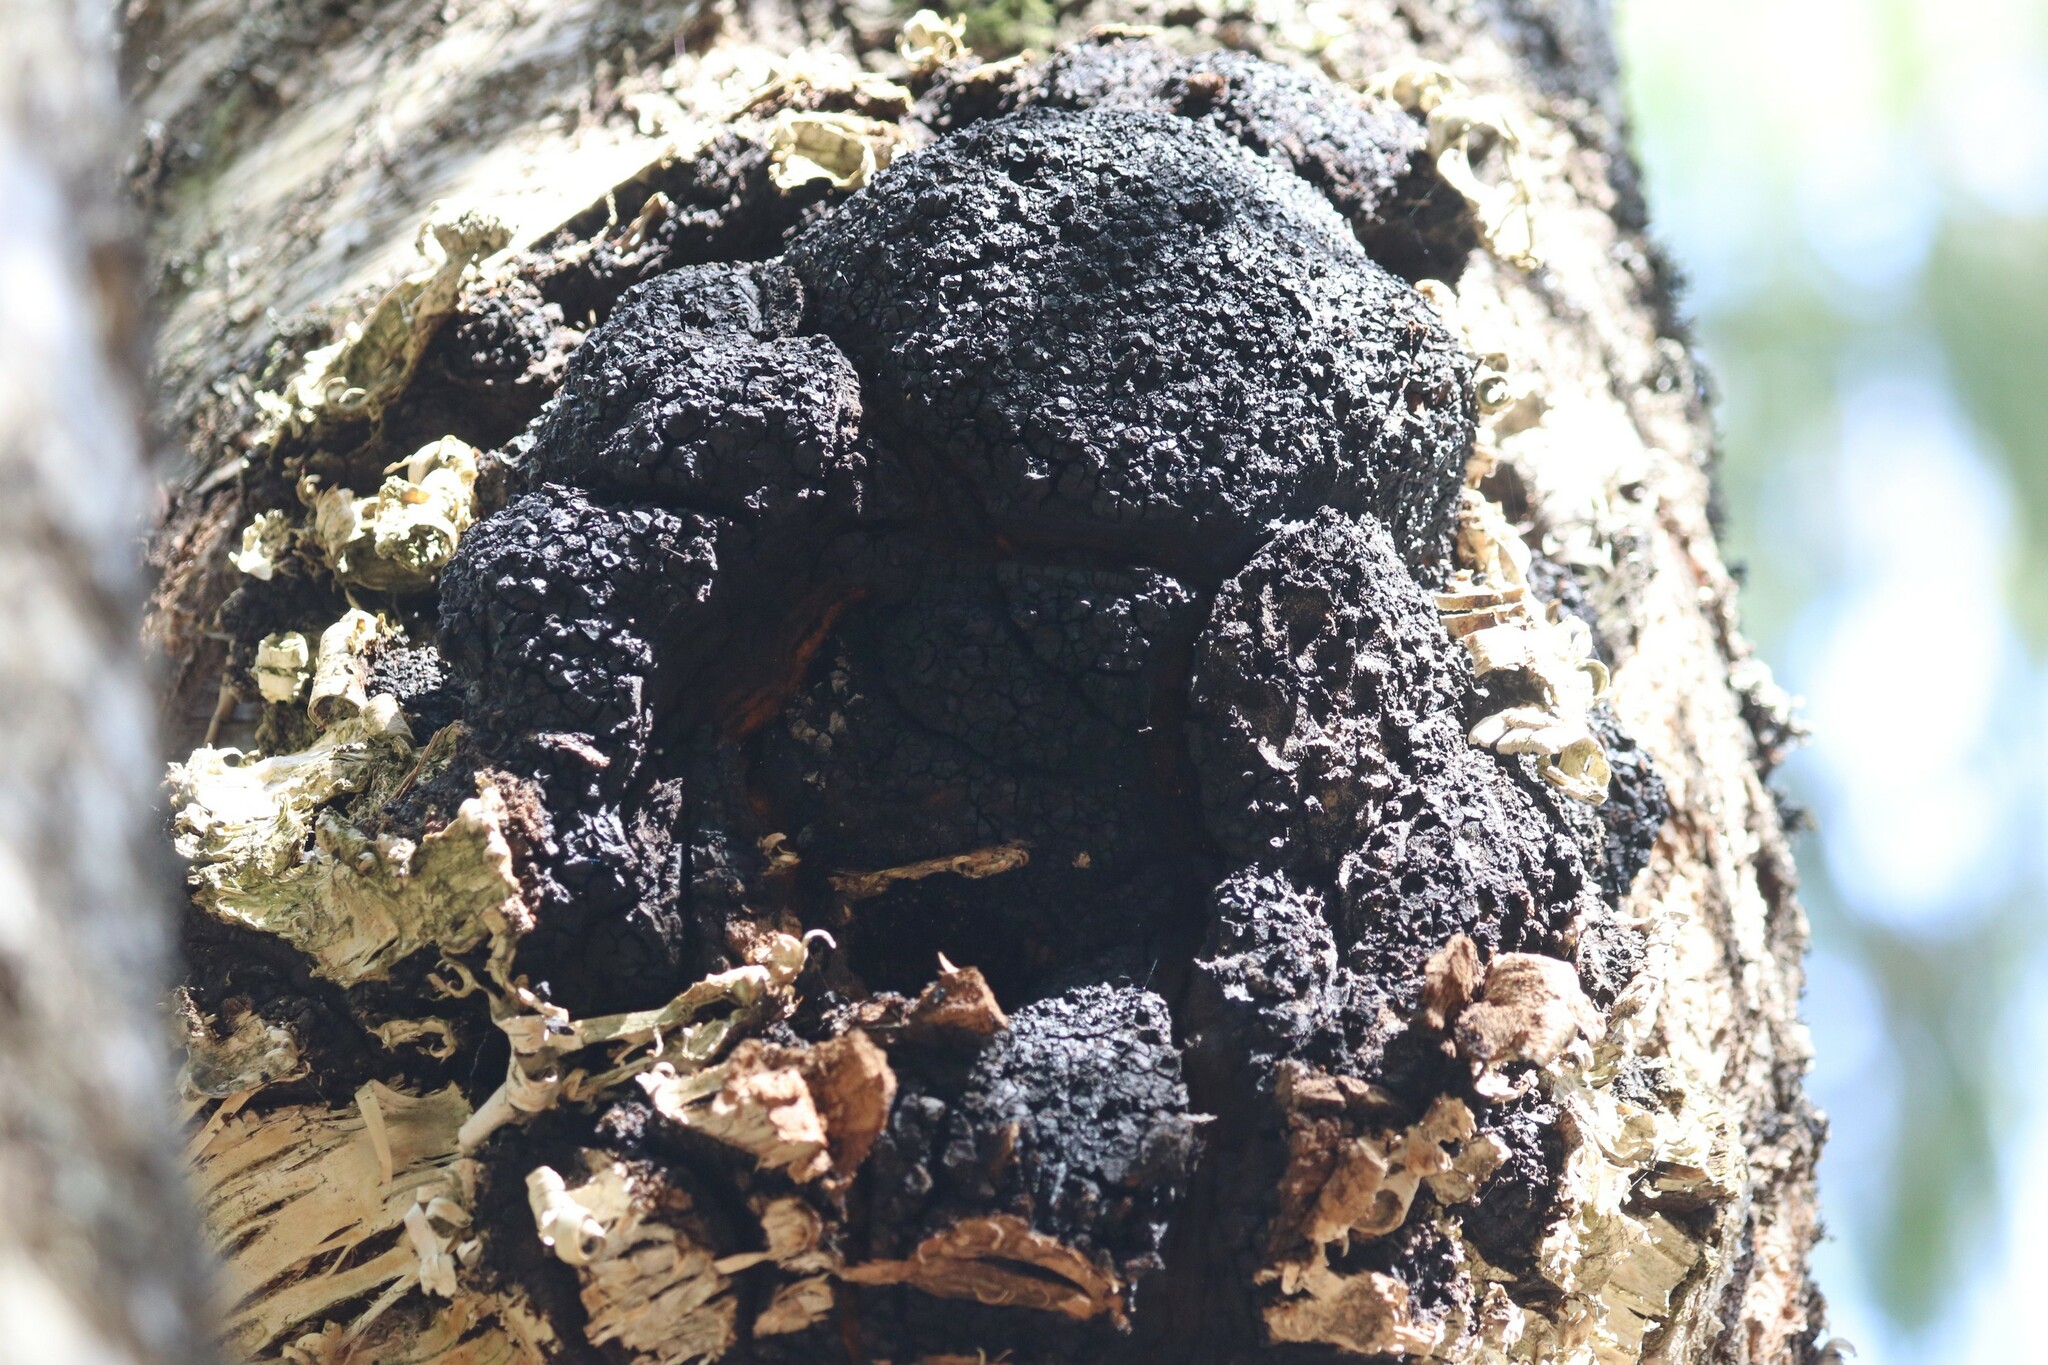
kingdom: Fungi
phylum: Basidiomycota
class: Agaricomycetes
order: Hymenochaetales
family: Hymenochaetaceae
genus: Inonotus
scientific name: Inonotus obliquus
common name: Chaga
